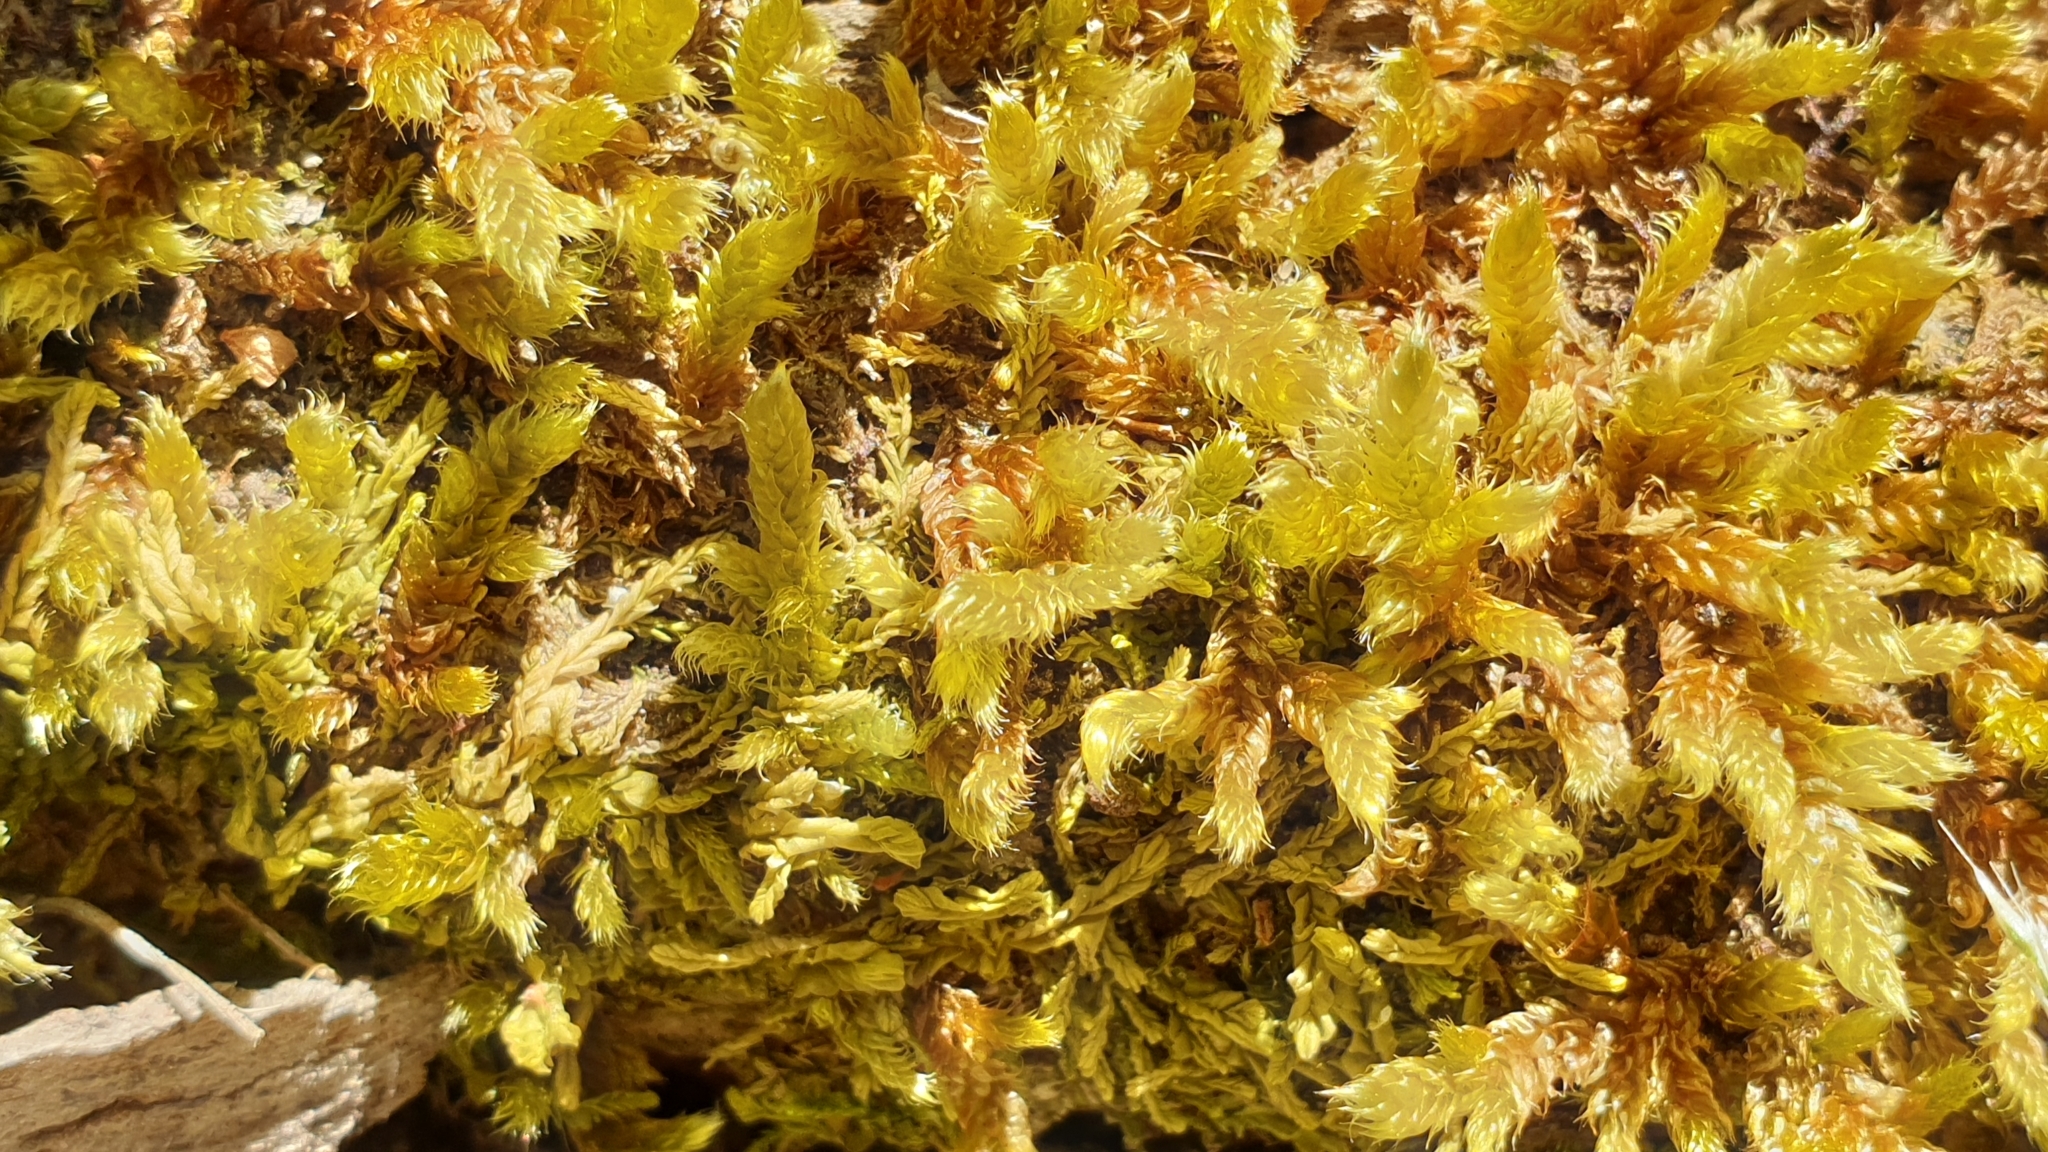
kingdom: Plantae
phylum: Bryophyta
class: Bryopsida
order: Hypnales
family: Hypnaceae
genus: Hypnum
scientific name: Hypnum cupressiforme
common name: Cypress-leaved plait-moss
